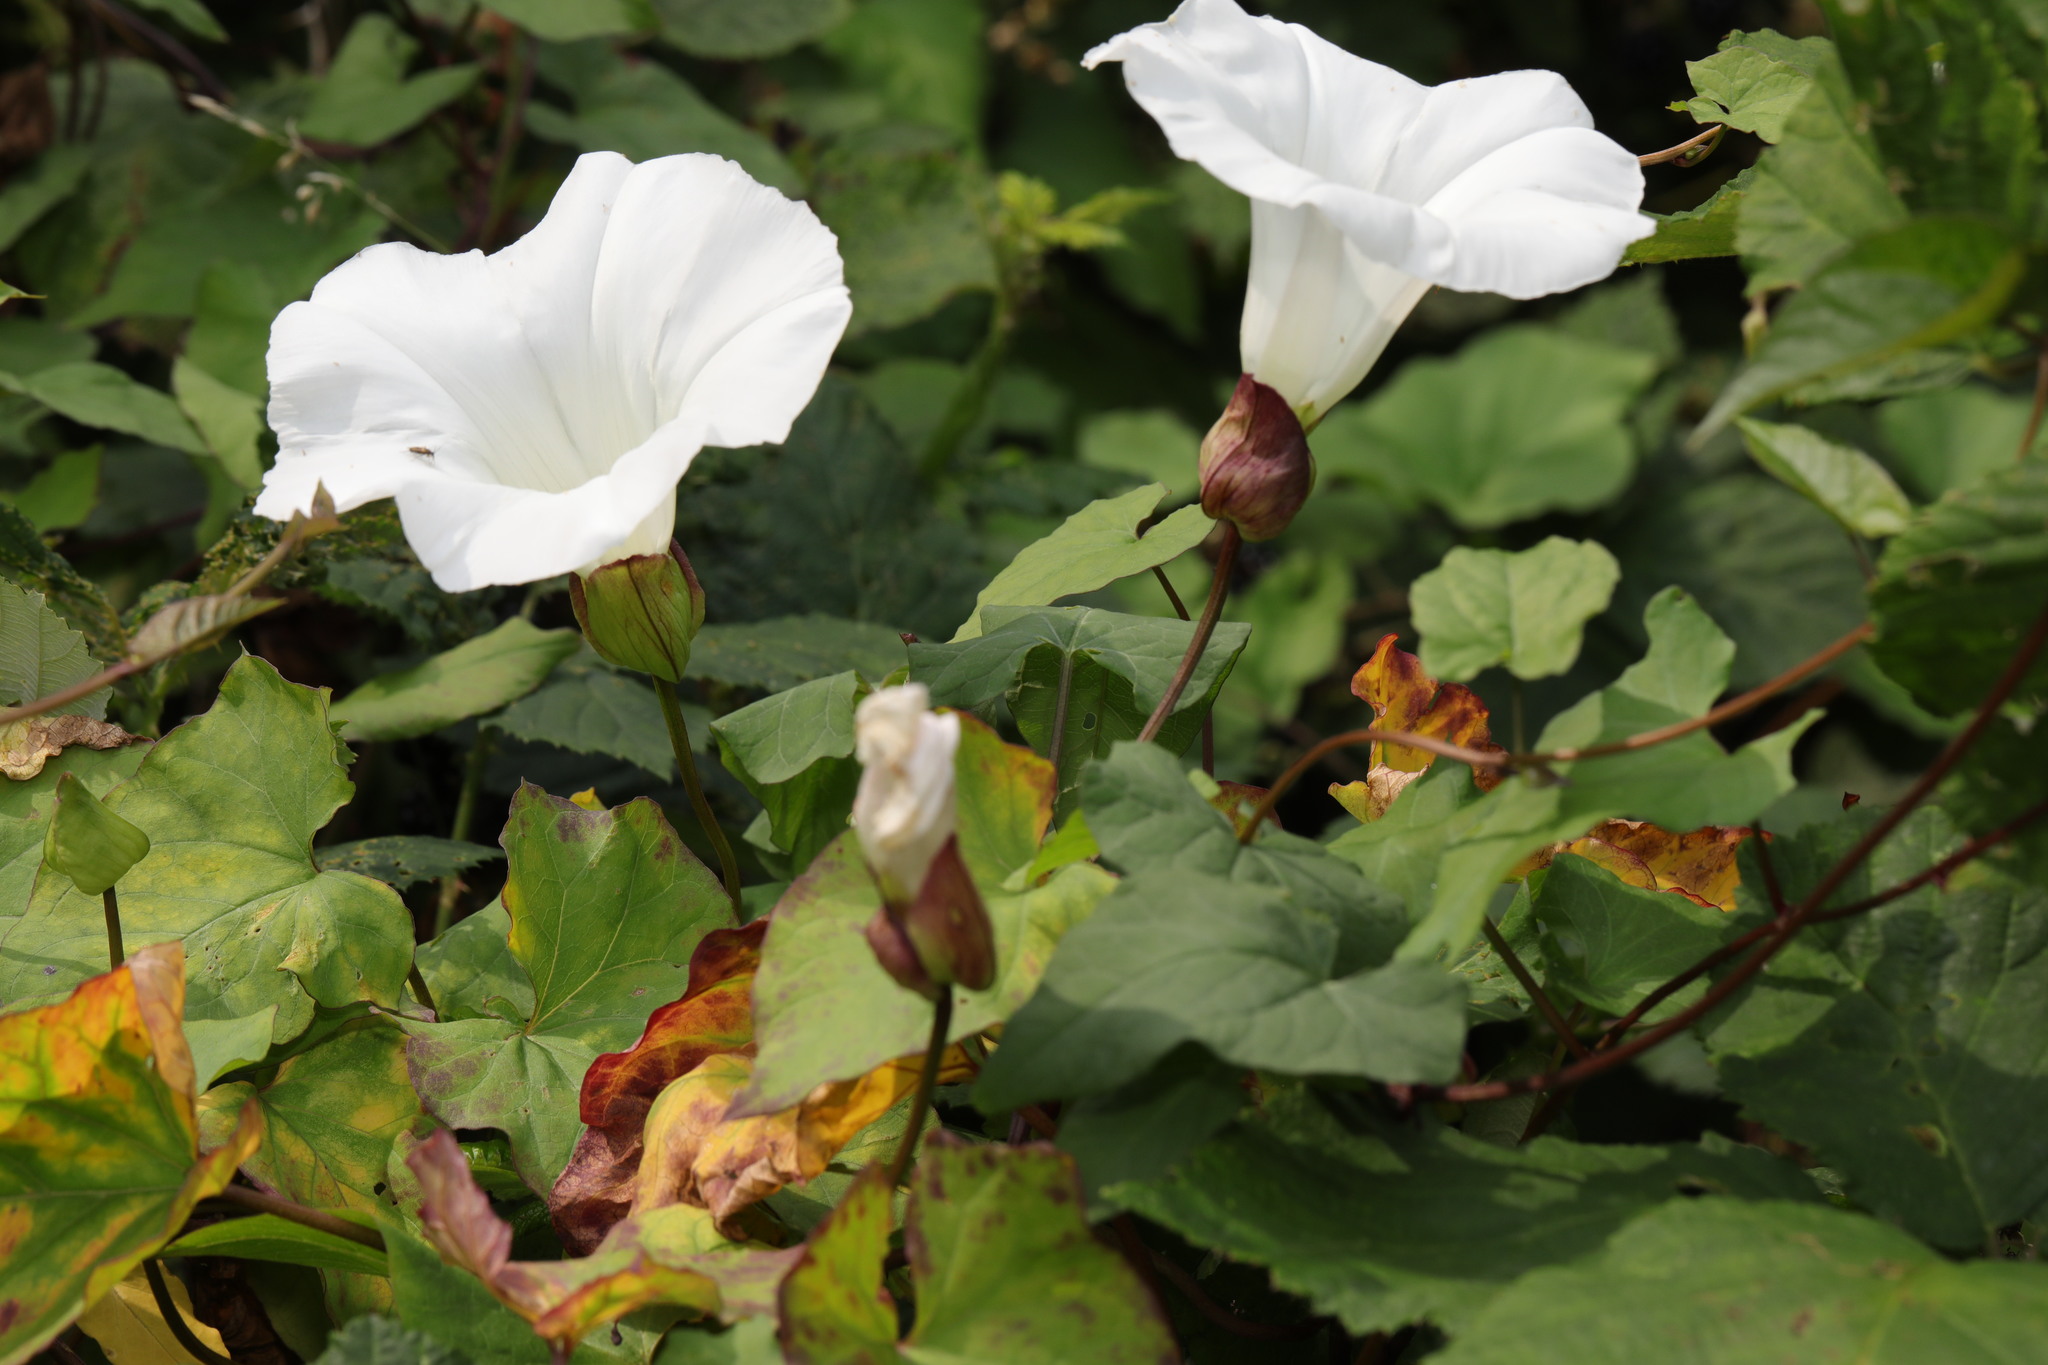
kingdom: Plantae
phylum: Tracheophyta
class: Magnoliopsida
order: Solanales
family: Convolvulaceae
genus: Calystegia
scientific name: Calystegia silvatica
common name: Large bindweed
